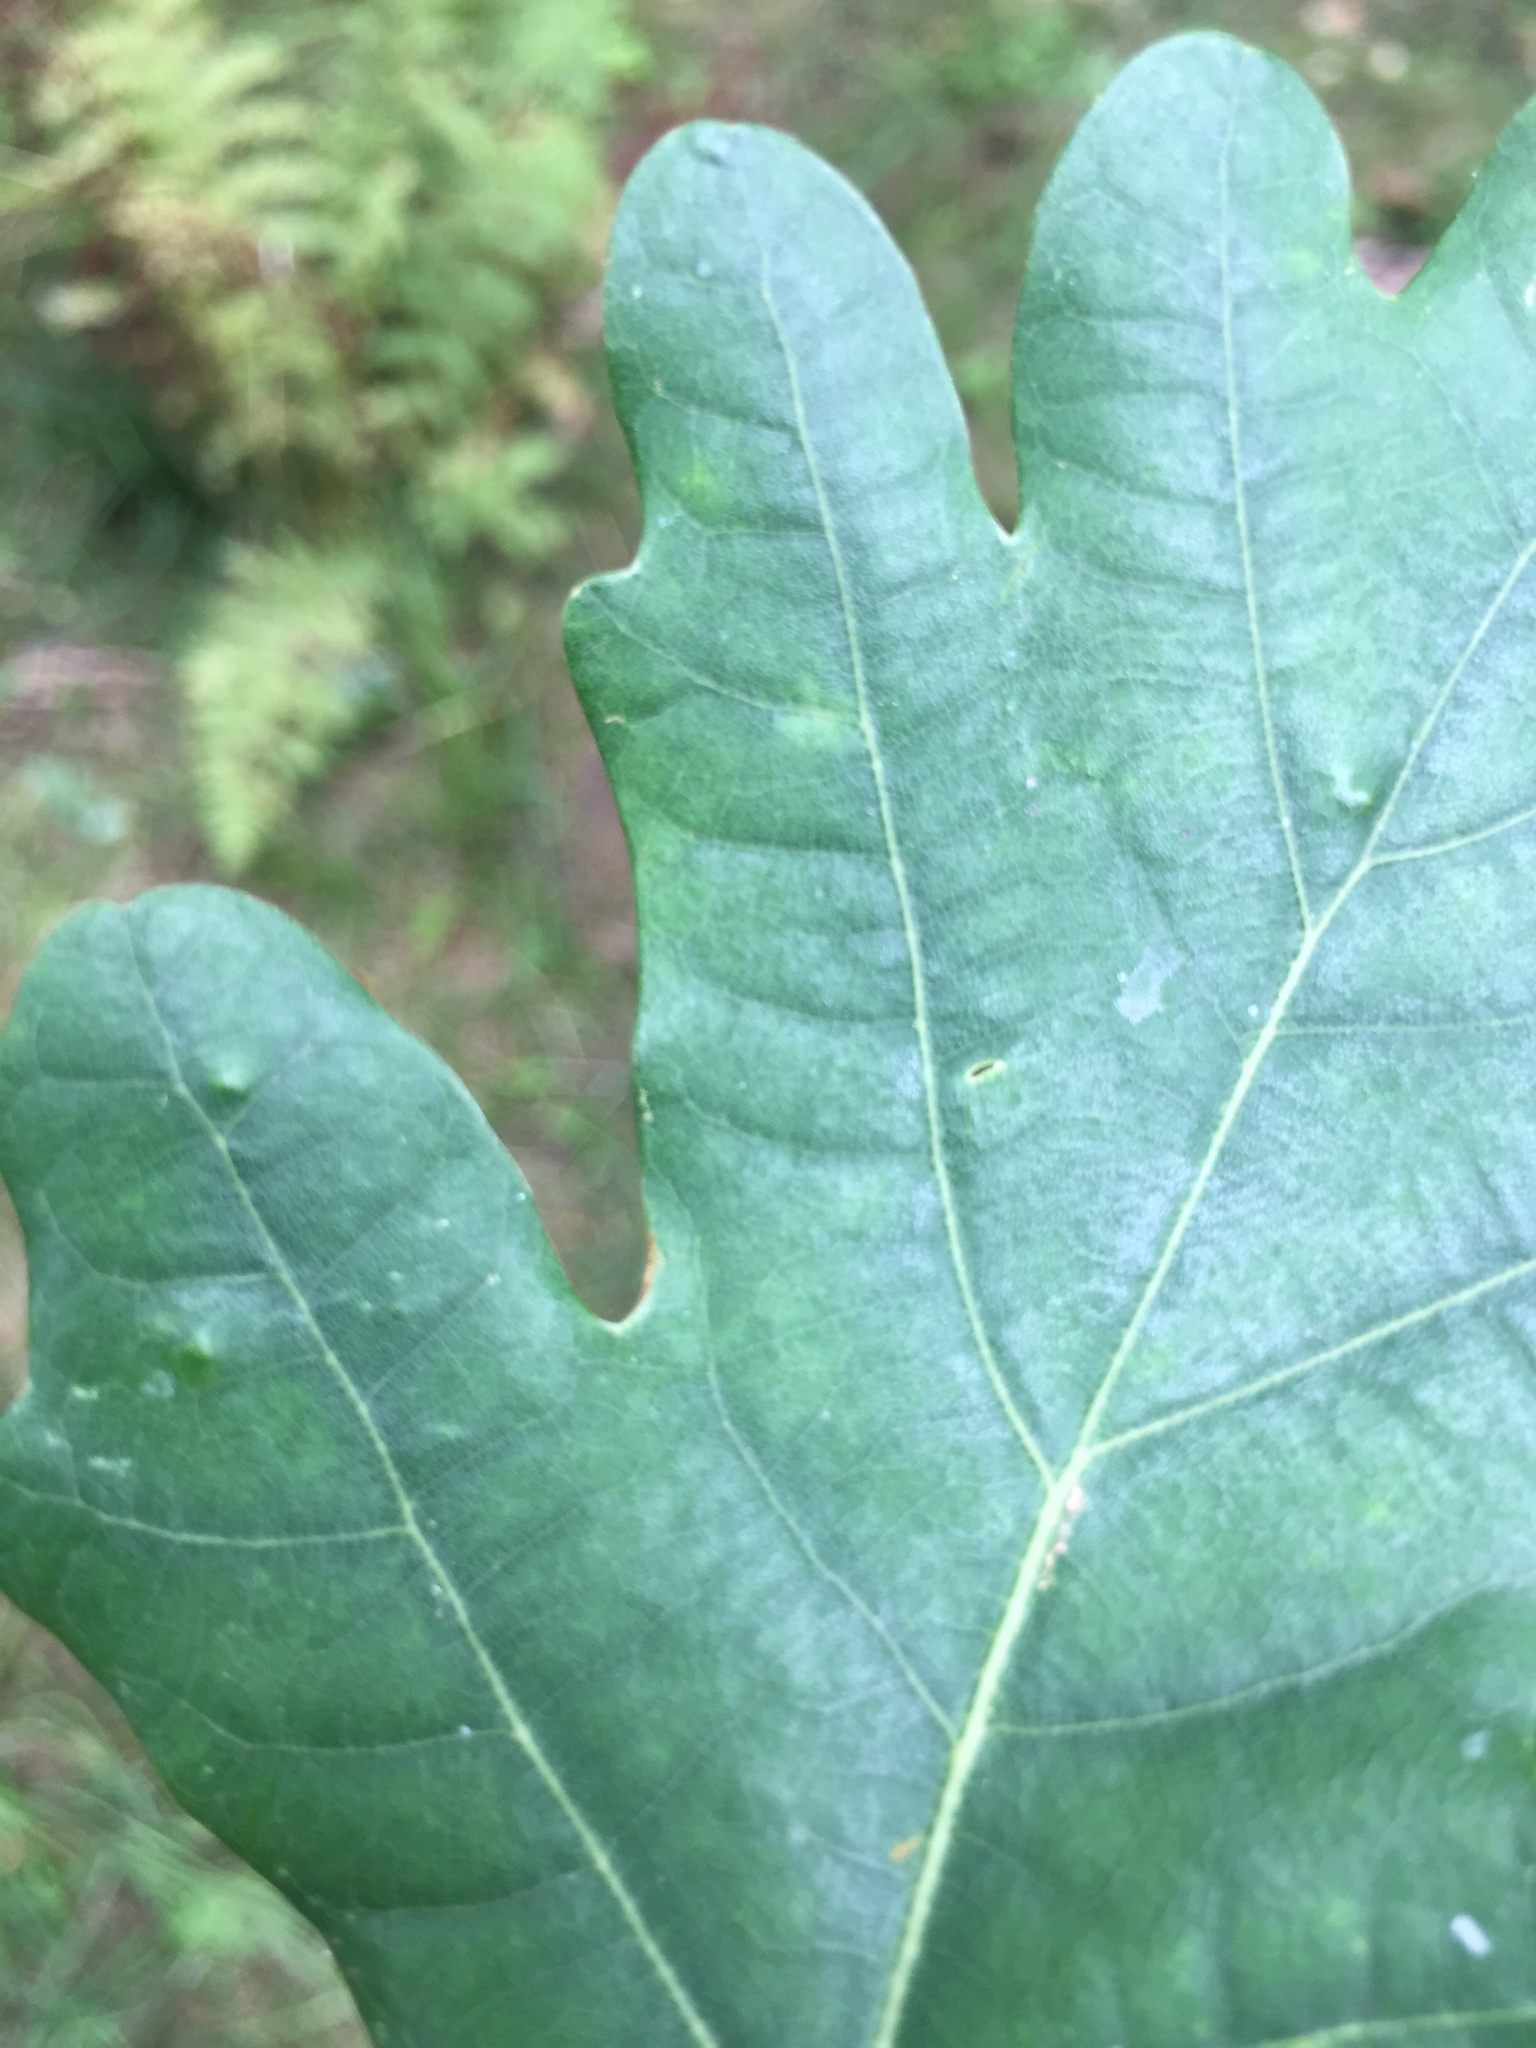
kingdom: Animalia
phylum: Arthropoda
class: Insecta
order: Hemiptera
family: Triozidae
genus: Trioza
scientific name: Trioza remota
